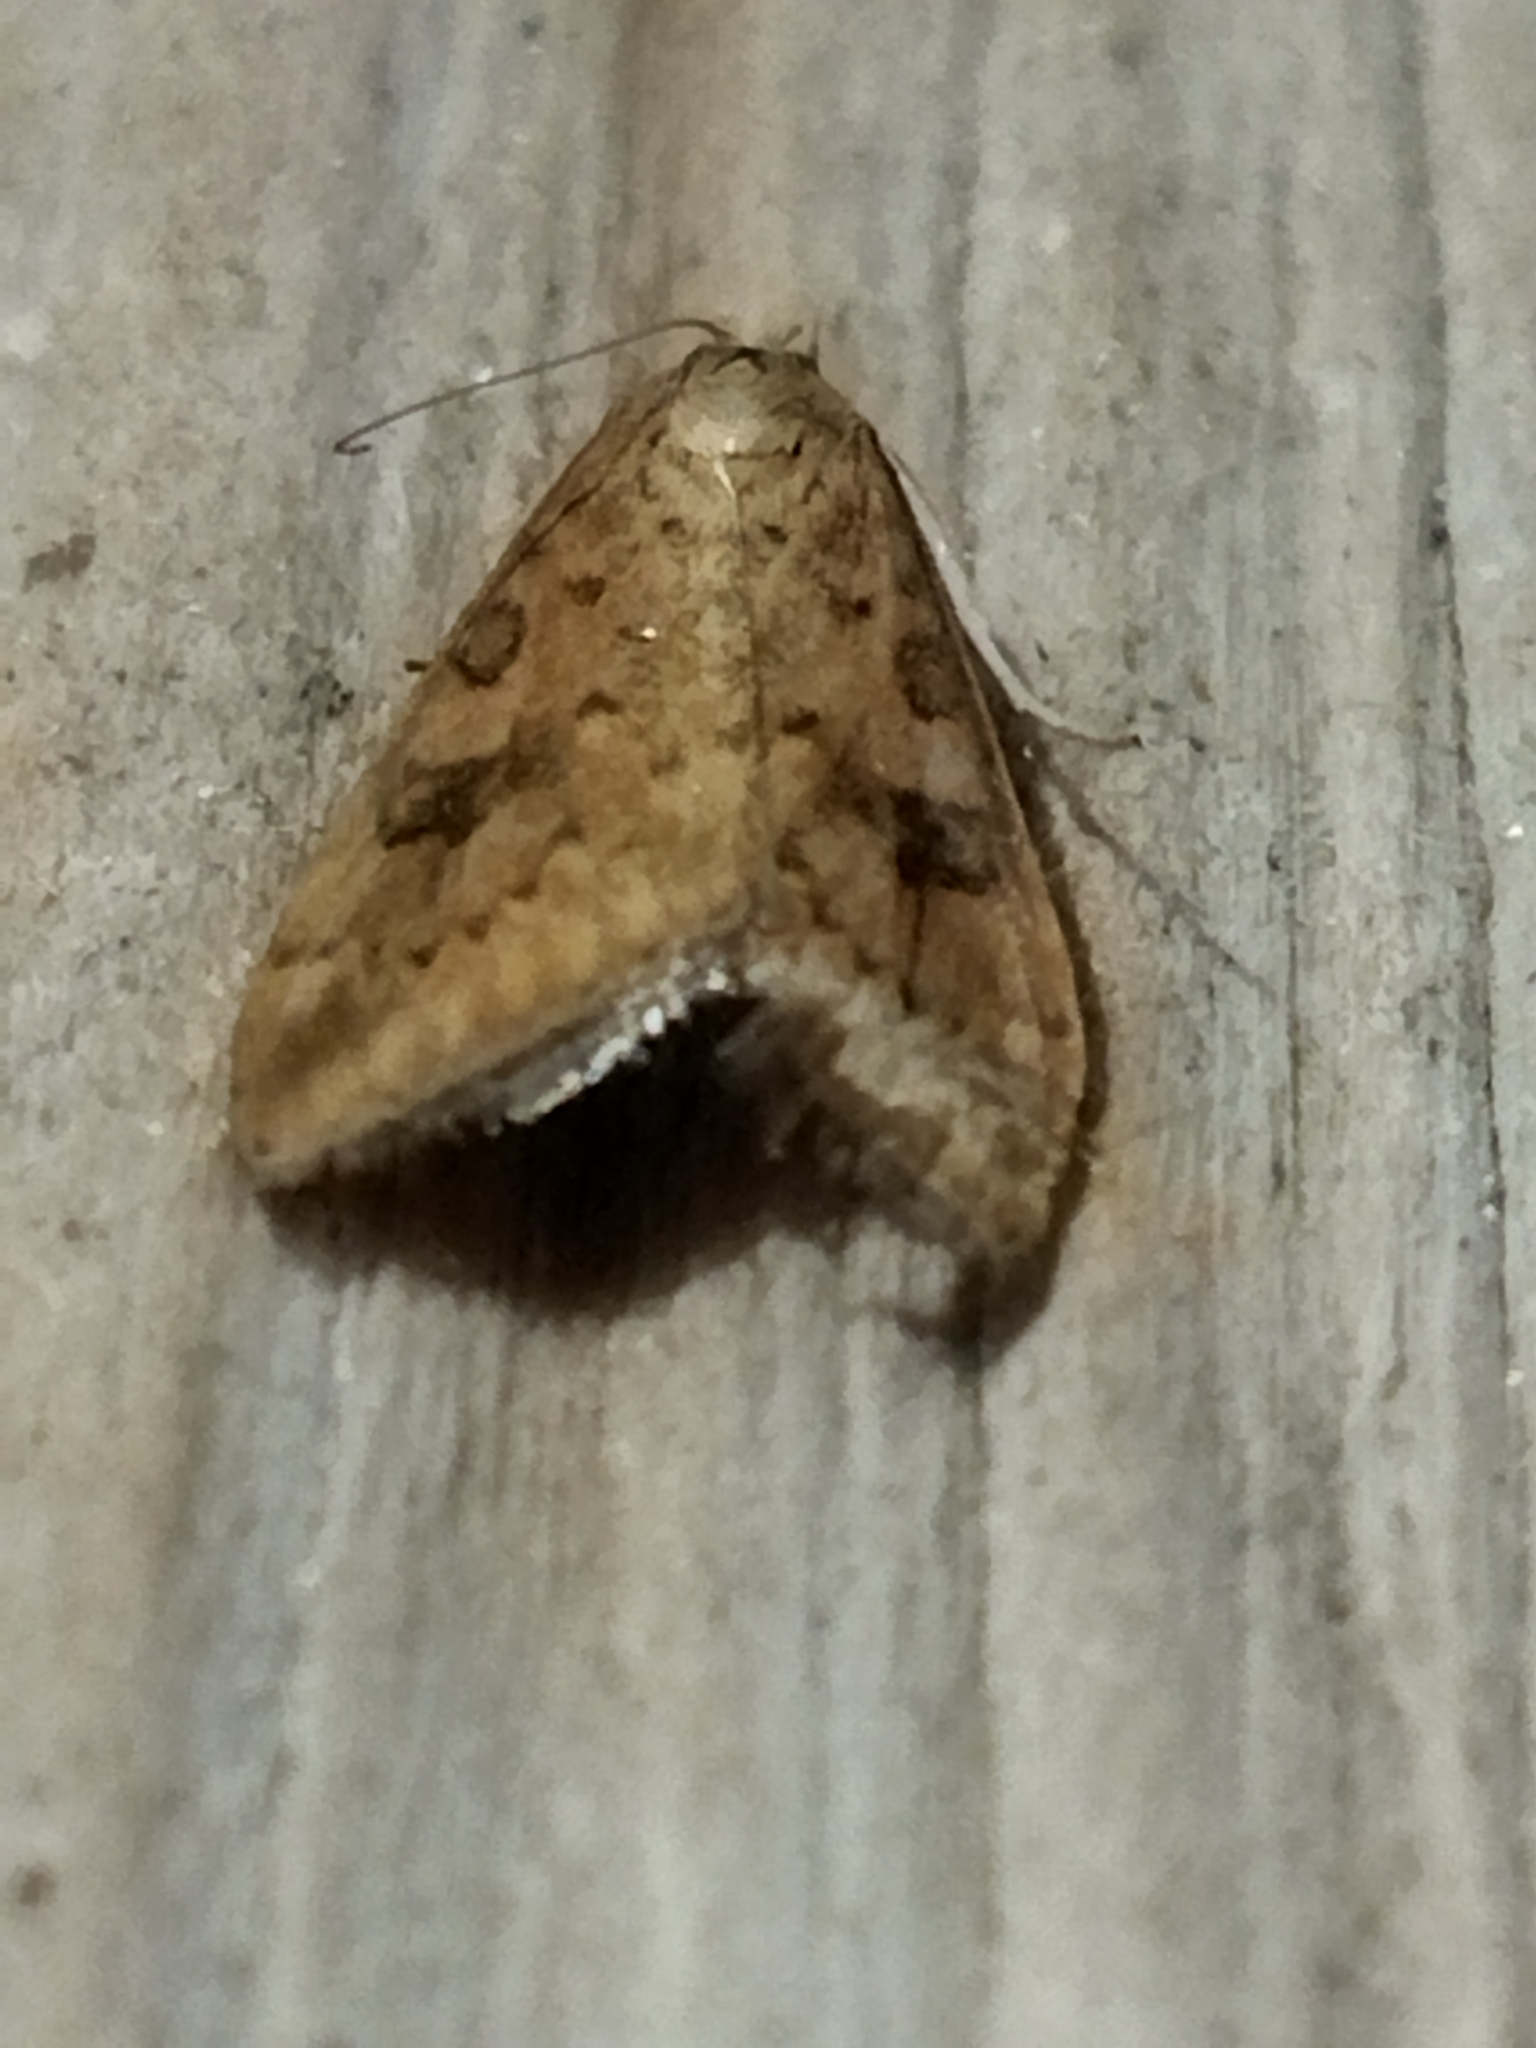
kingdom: Animalia
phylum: Arthropoda
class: Insecta
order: Lepidoptera
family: Crambidae
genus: Udea
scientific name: Udea ferrugalis
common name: Rusty dot
